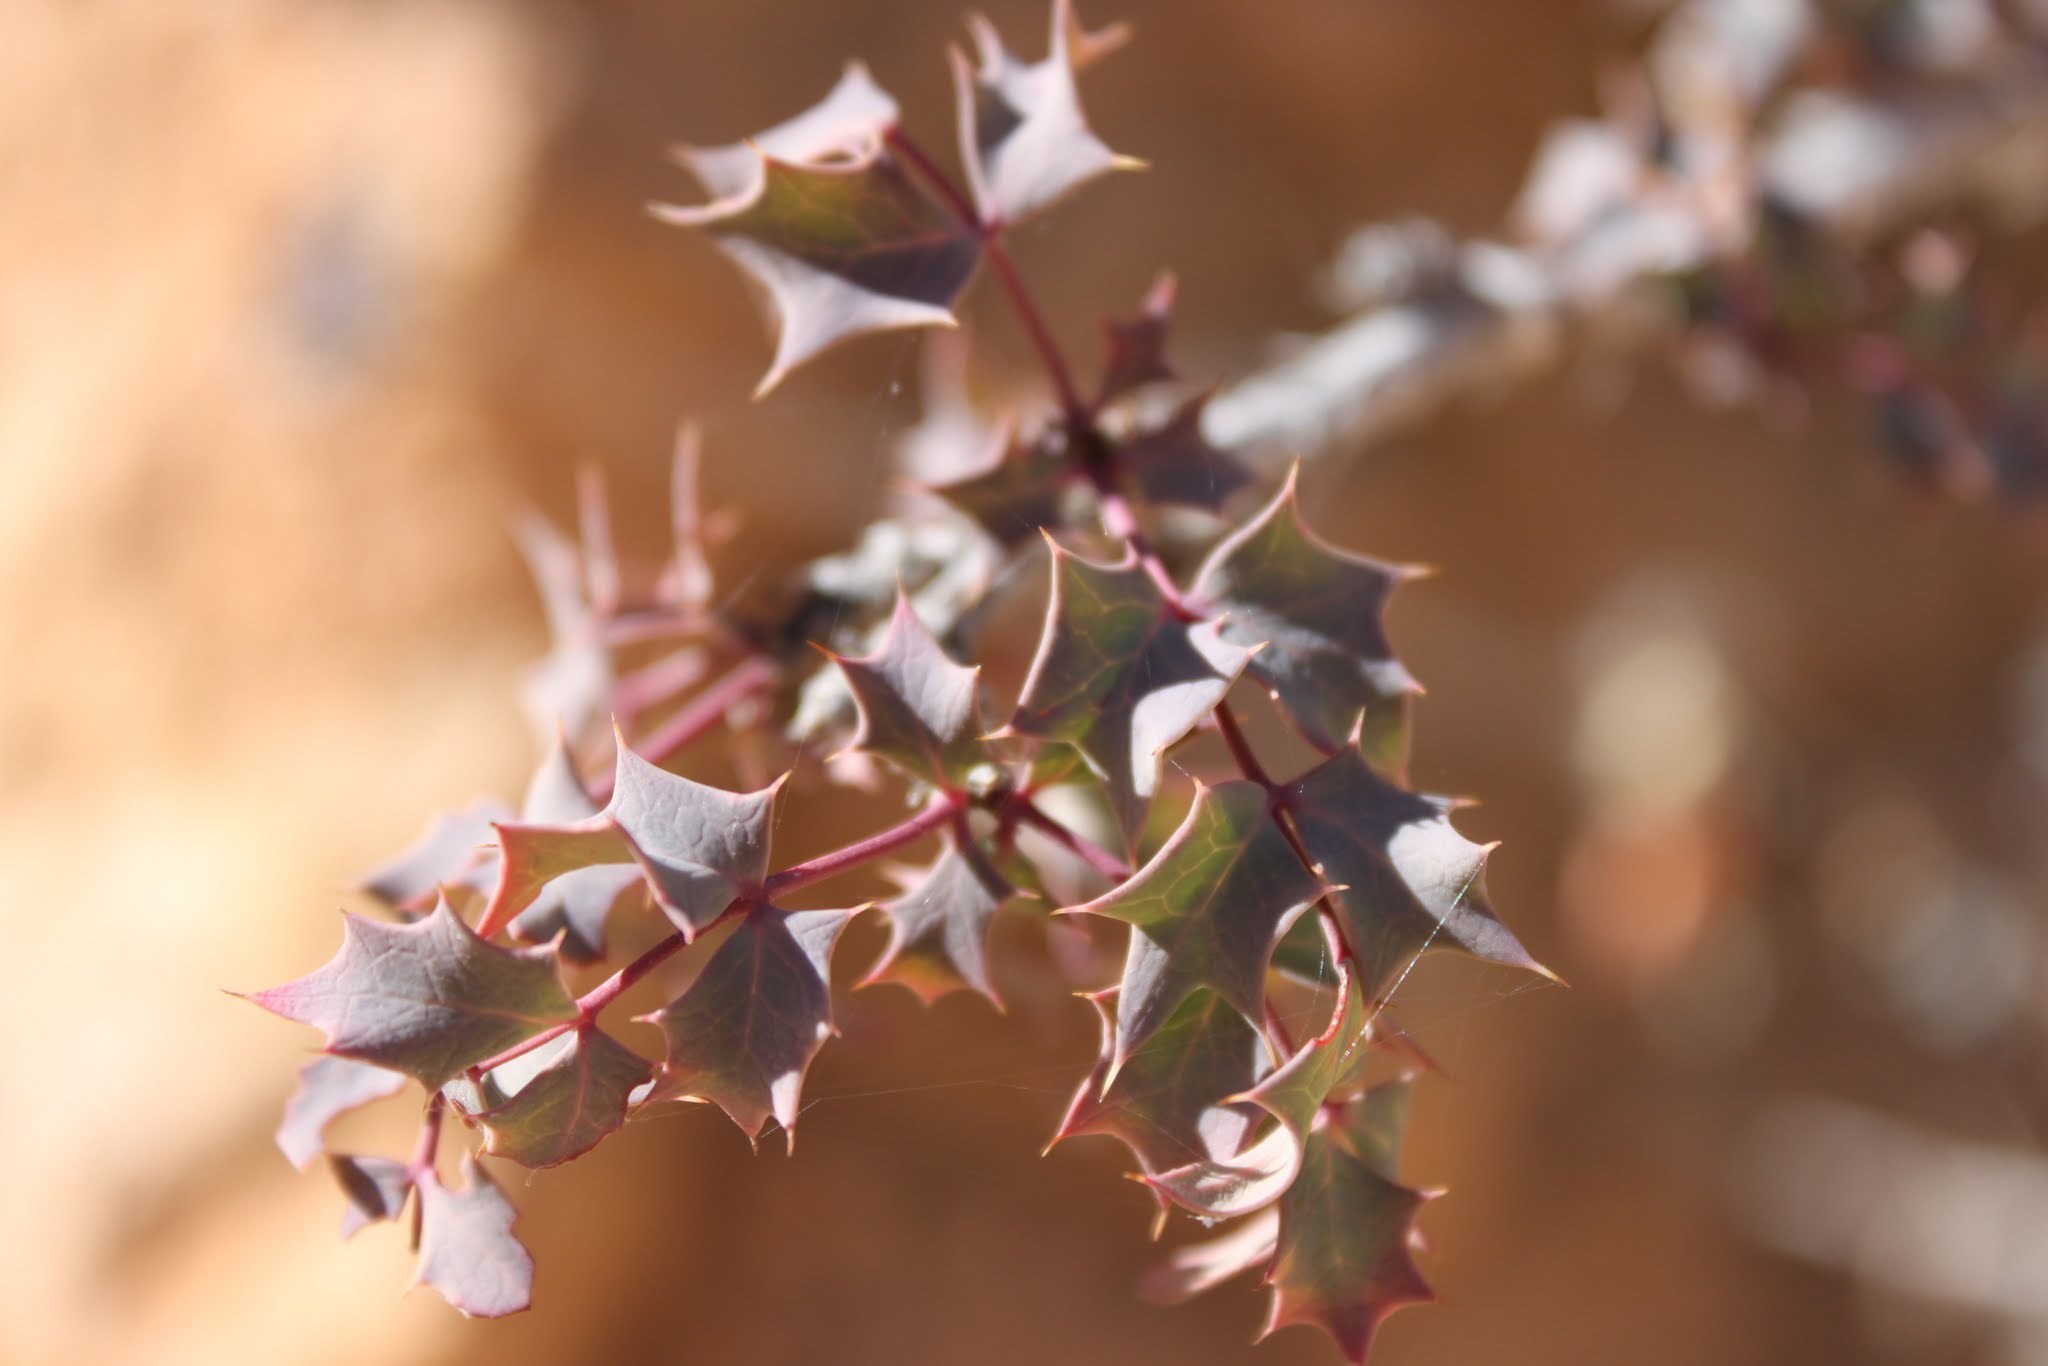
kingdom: Plantae
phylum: Tracheophyta
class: Magnoliopsida
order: Ranunculales
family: Berberidaceae
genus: Alloberberis
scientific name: Alloberberis fremontii
